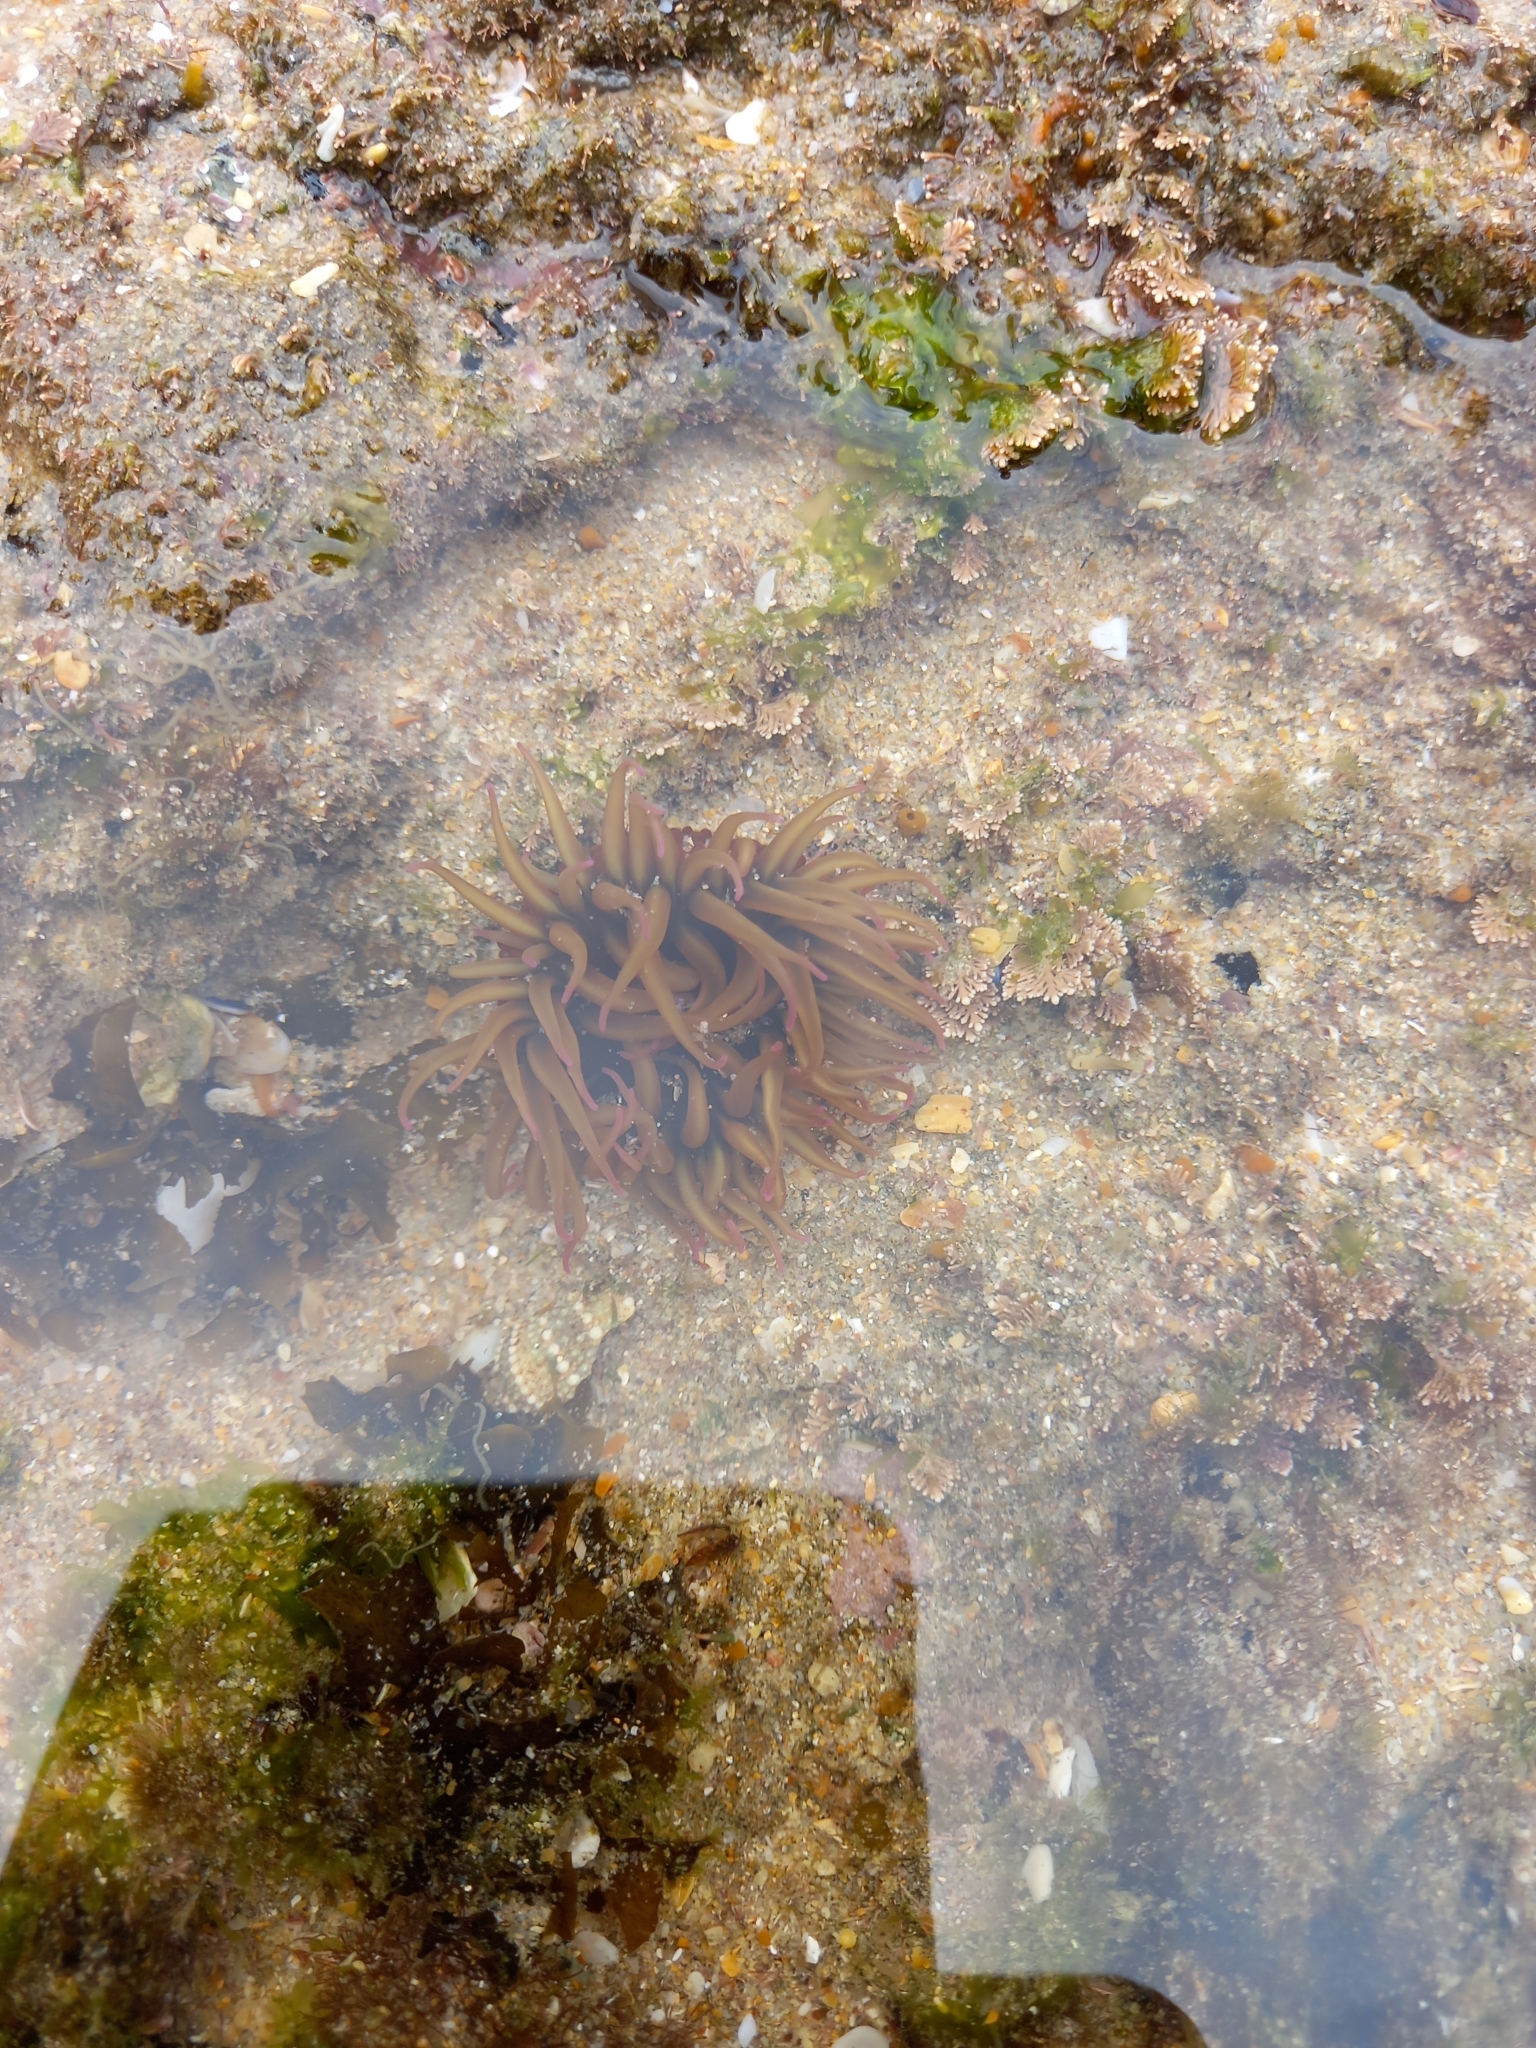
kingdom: Animalia
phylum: Cnidaria
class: Anthozoa
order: Actiniaria
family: Actiniidae
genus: Pseudactinia
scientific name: Pseudactinia flagellifera
